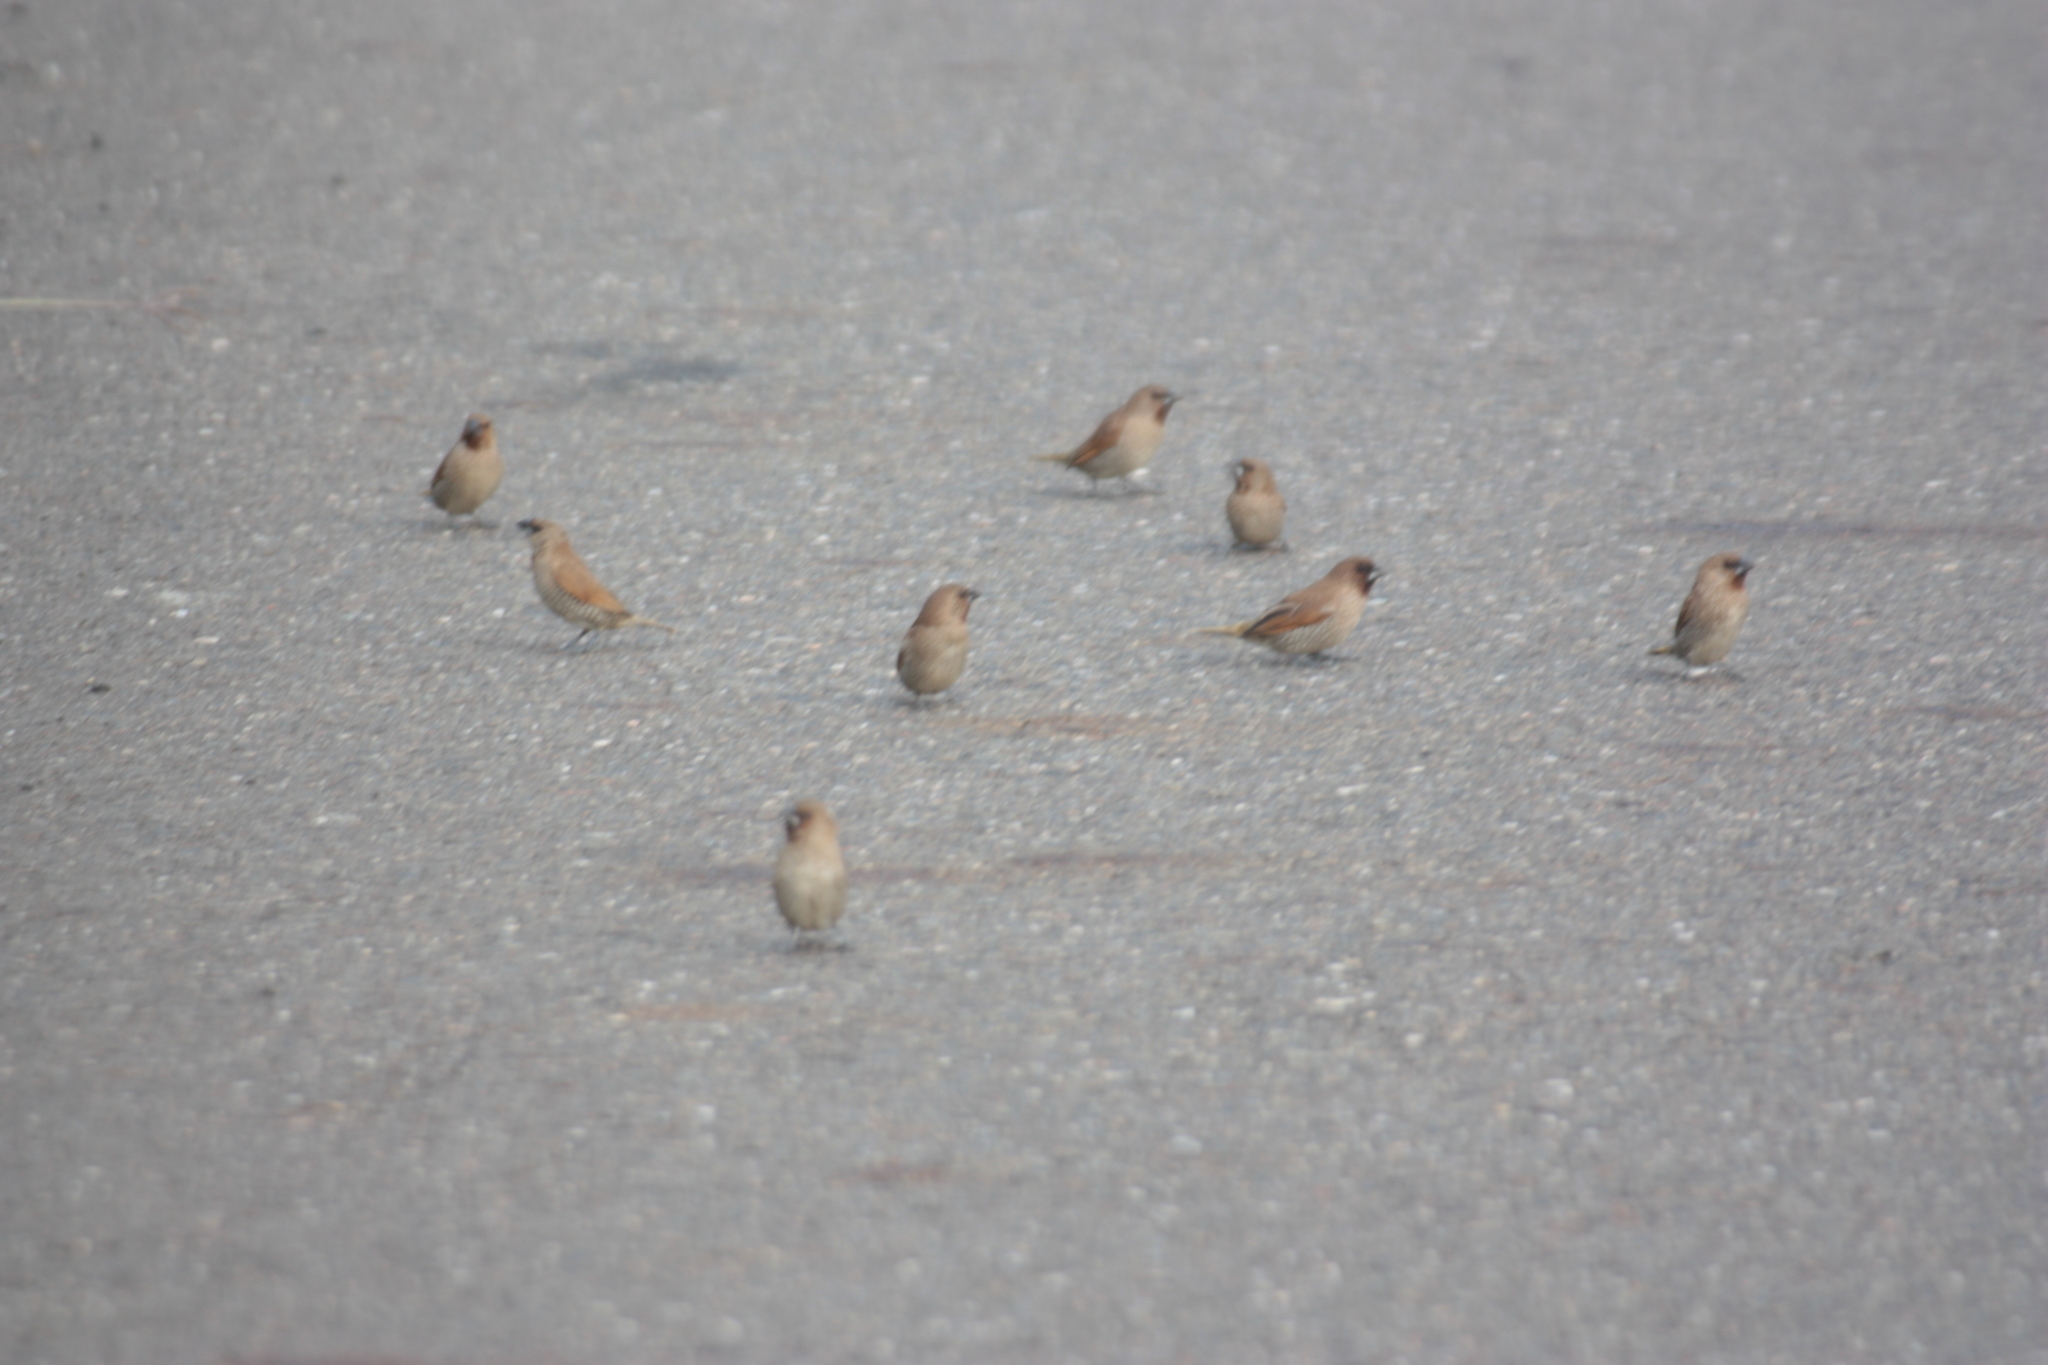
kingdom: Animalia
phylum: Chordata
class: Aves
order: Passeriformes
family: Estrildidae
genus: Lonchura
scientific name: Lonchura punctulata
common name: Scaly-breasted munia
